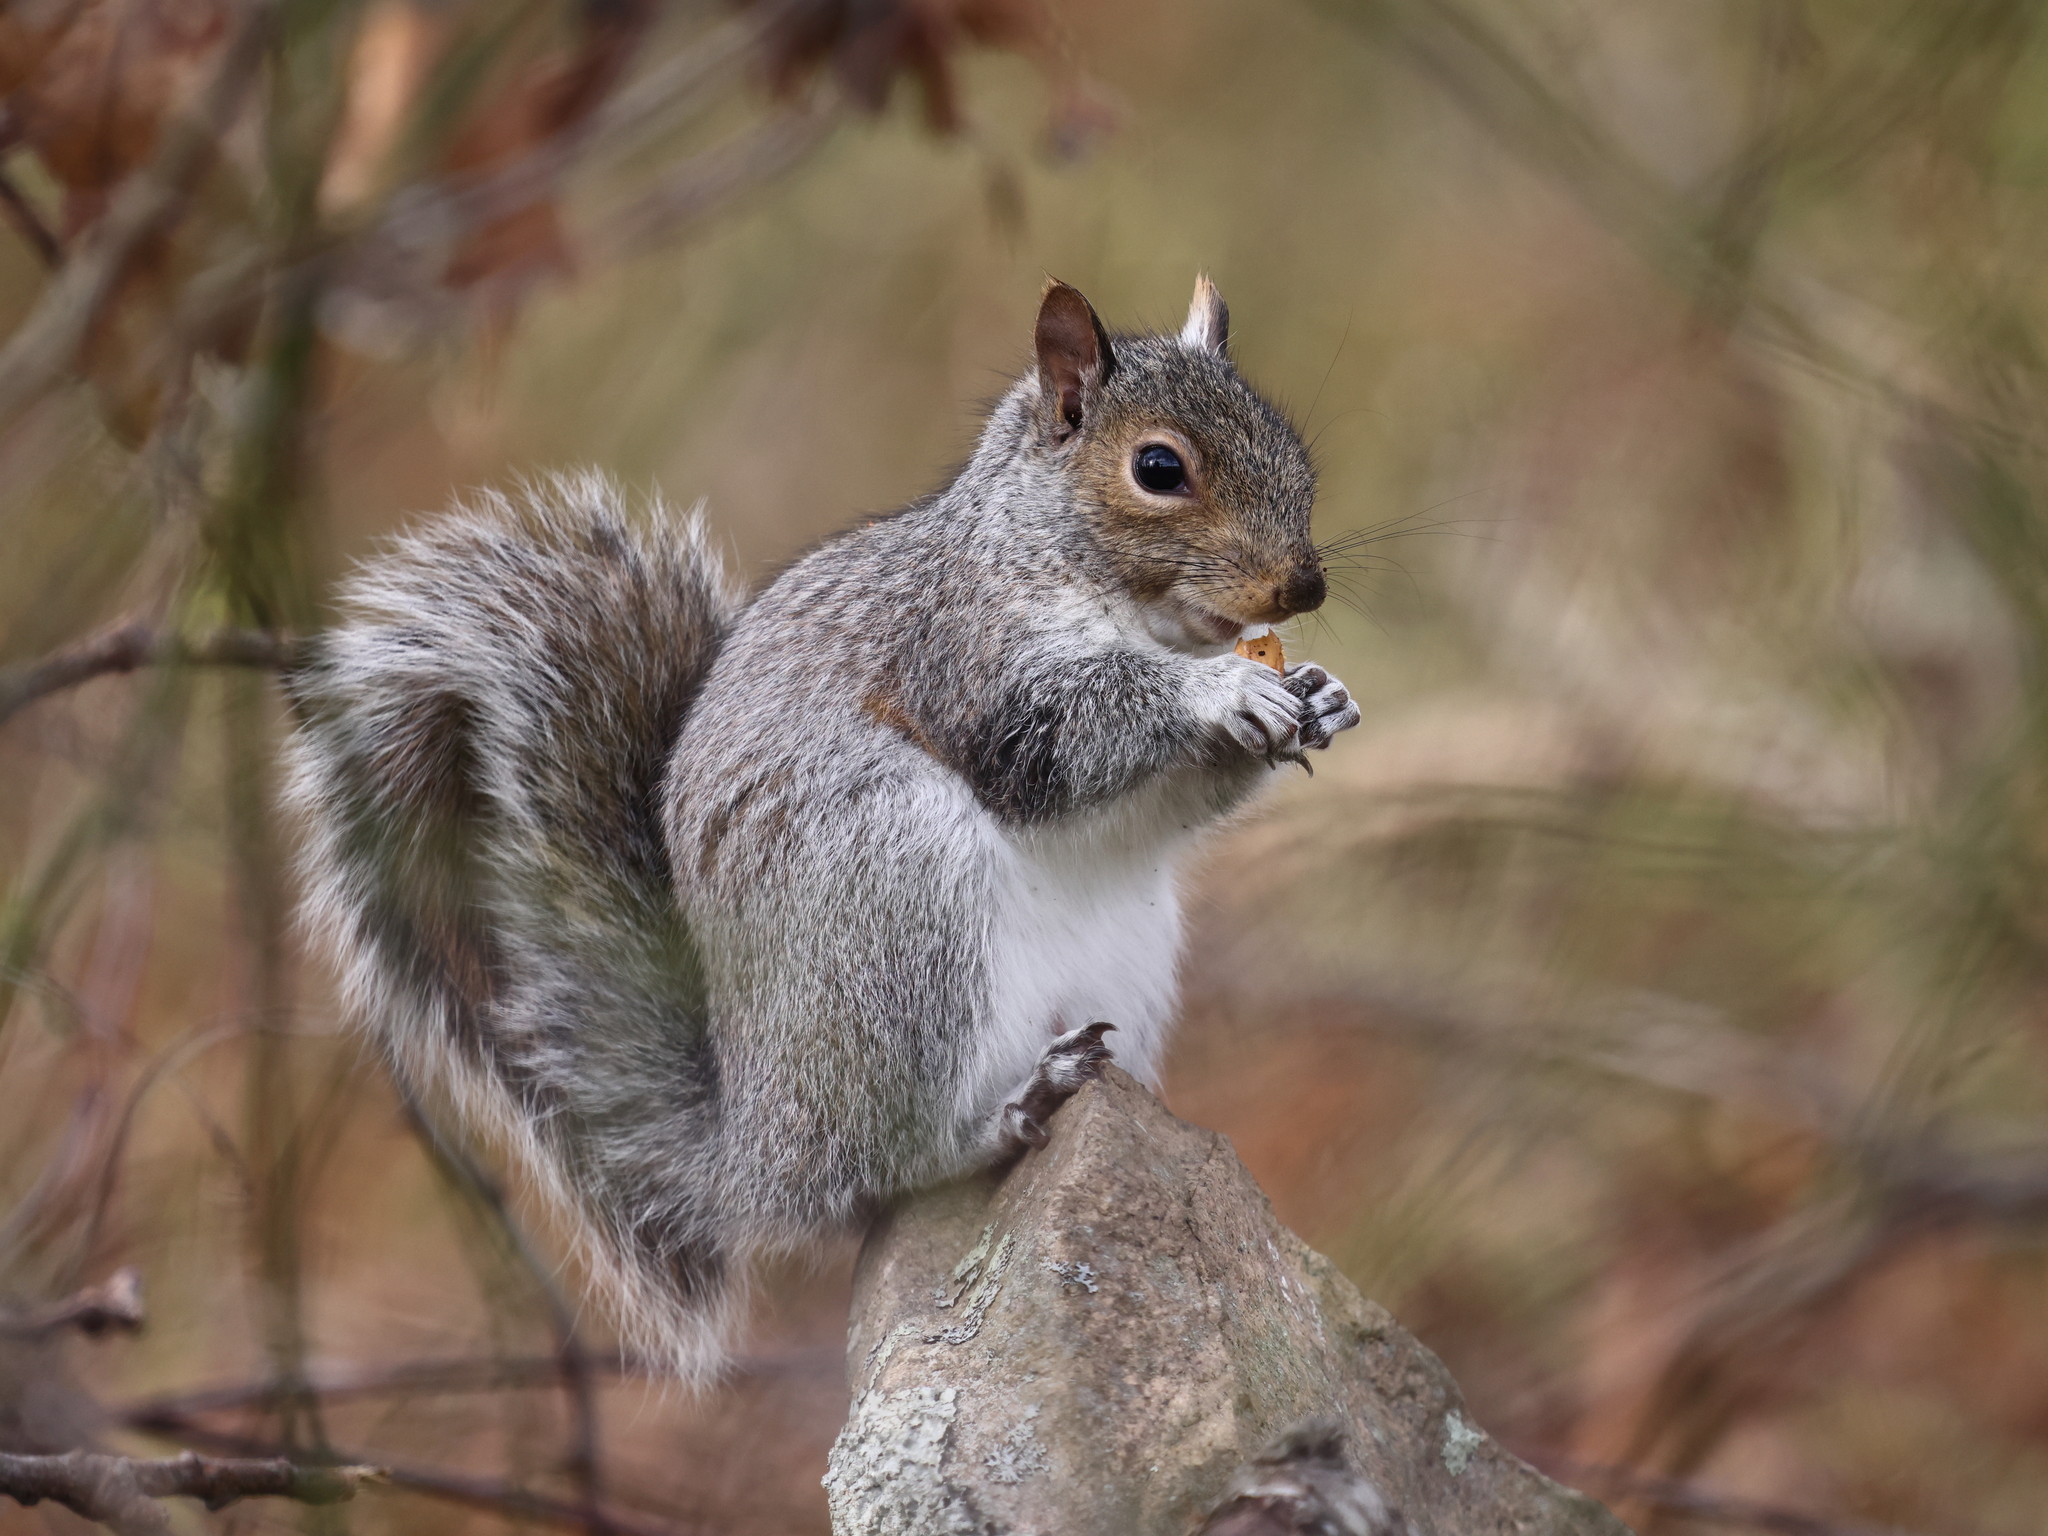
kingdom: Animalia
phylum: Chordata
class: Mammalia
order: Rodentia
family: Sciuridae
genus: Sciurus
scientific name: Sciurus carolinensis
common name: Eastern gray squirrel
